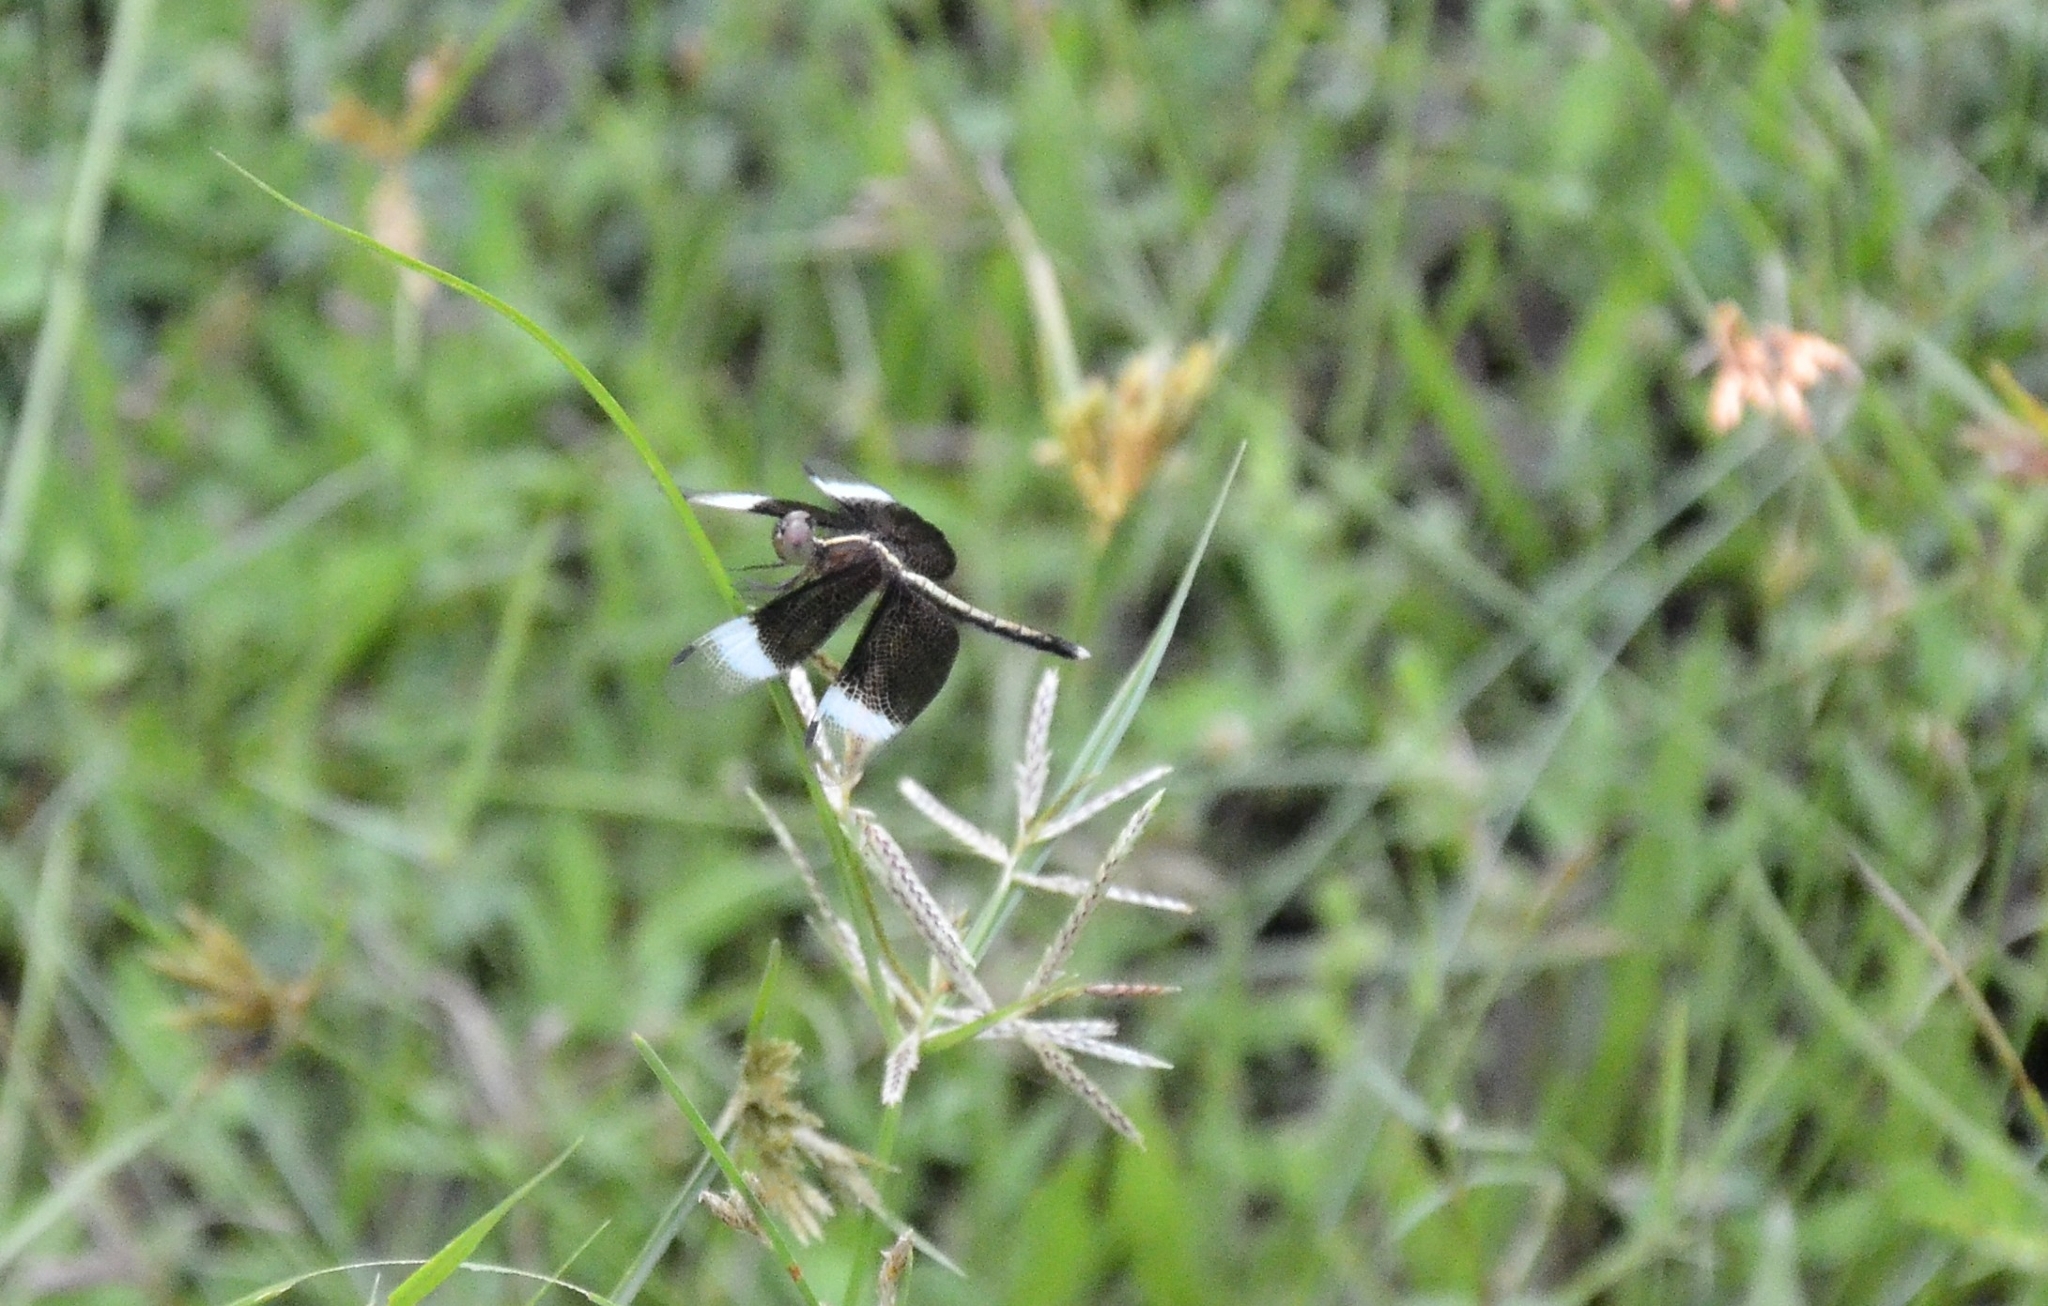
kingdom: Animalia
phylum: Arthropoda
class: Insecta
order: Odonata
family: Libellulidae
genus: Neurothemis
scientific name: Neurothemis tullia
